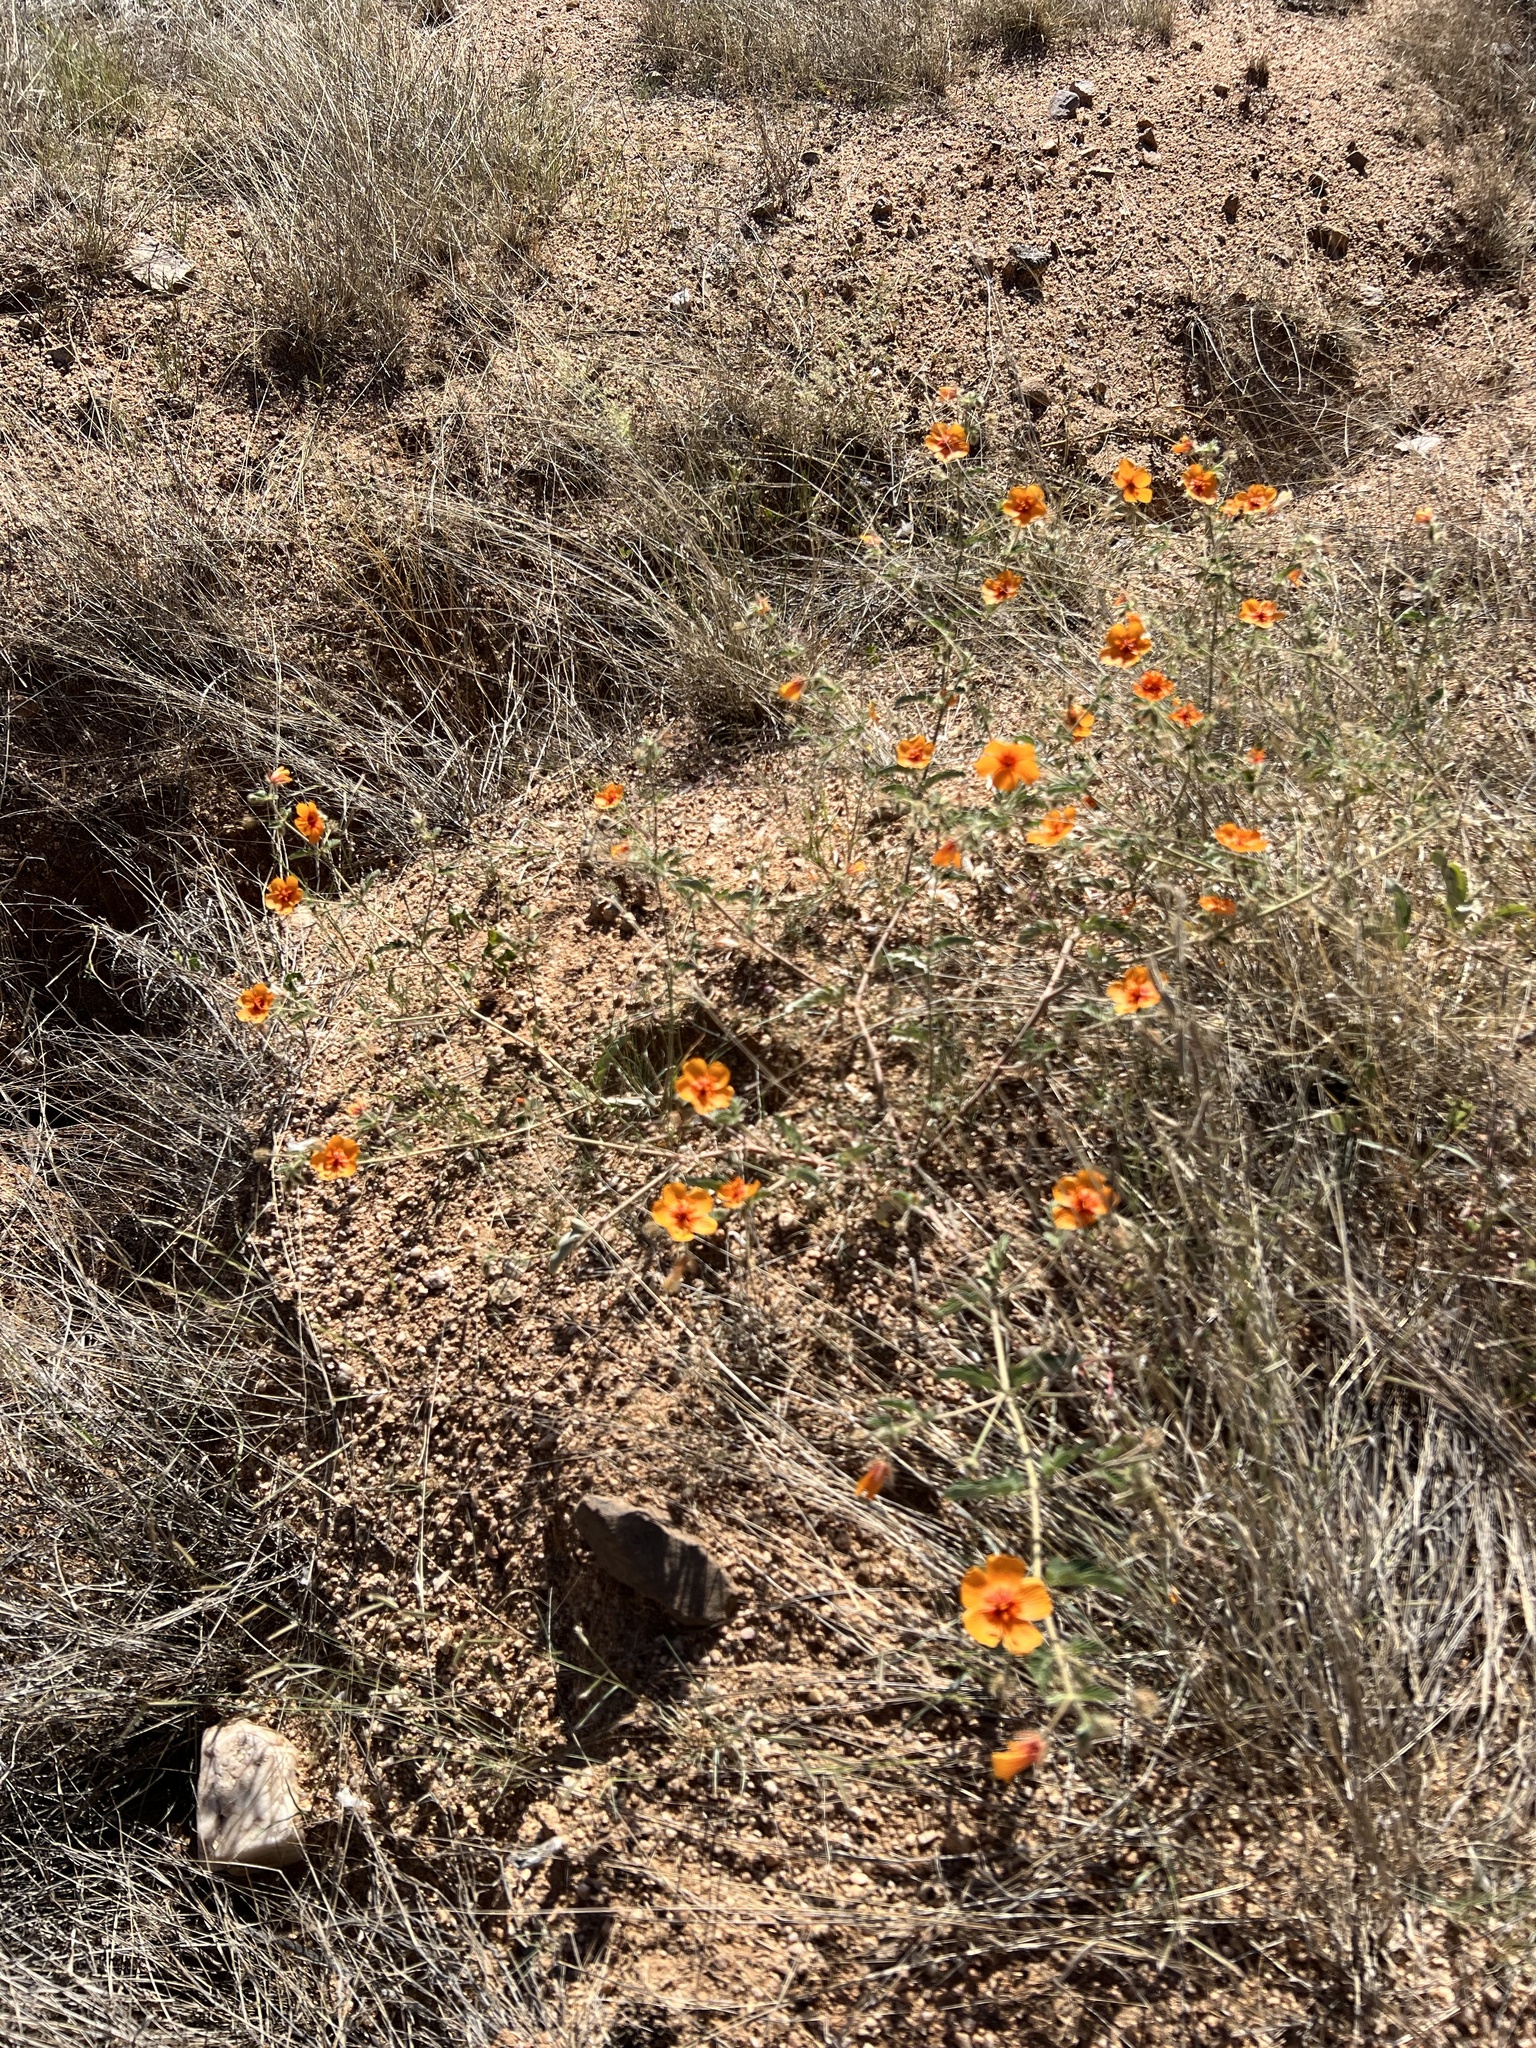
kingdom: Plantae
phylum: Tracheophyta
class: Magnoliopsida
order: Zygophyllales
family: Zygophyllaceae
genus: Kallstroemia
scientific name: Kallstroemia grandiflora
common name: Arizona-poppy
